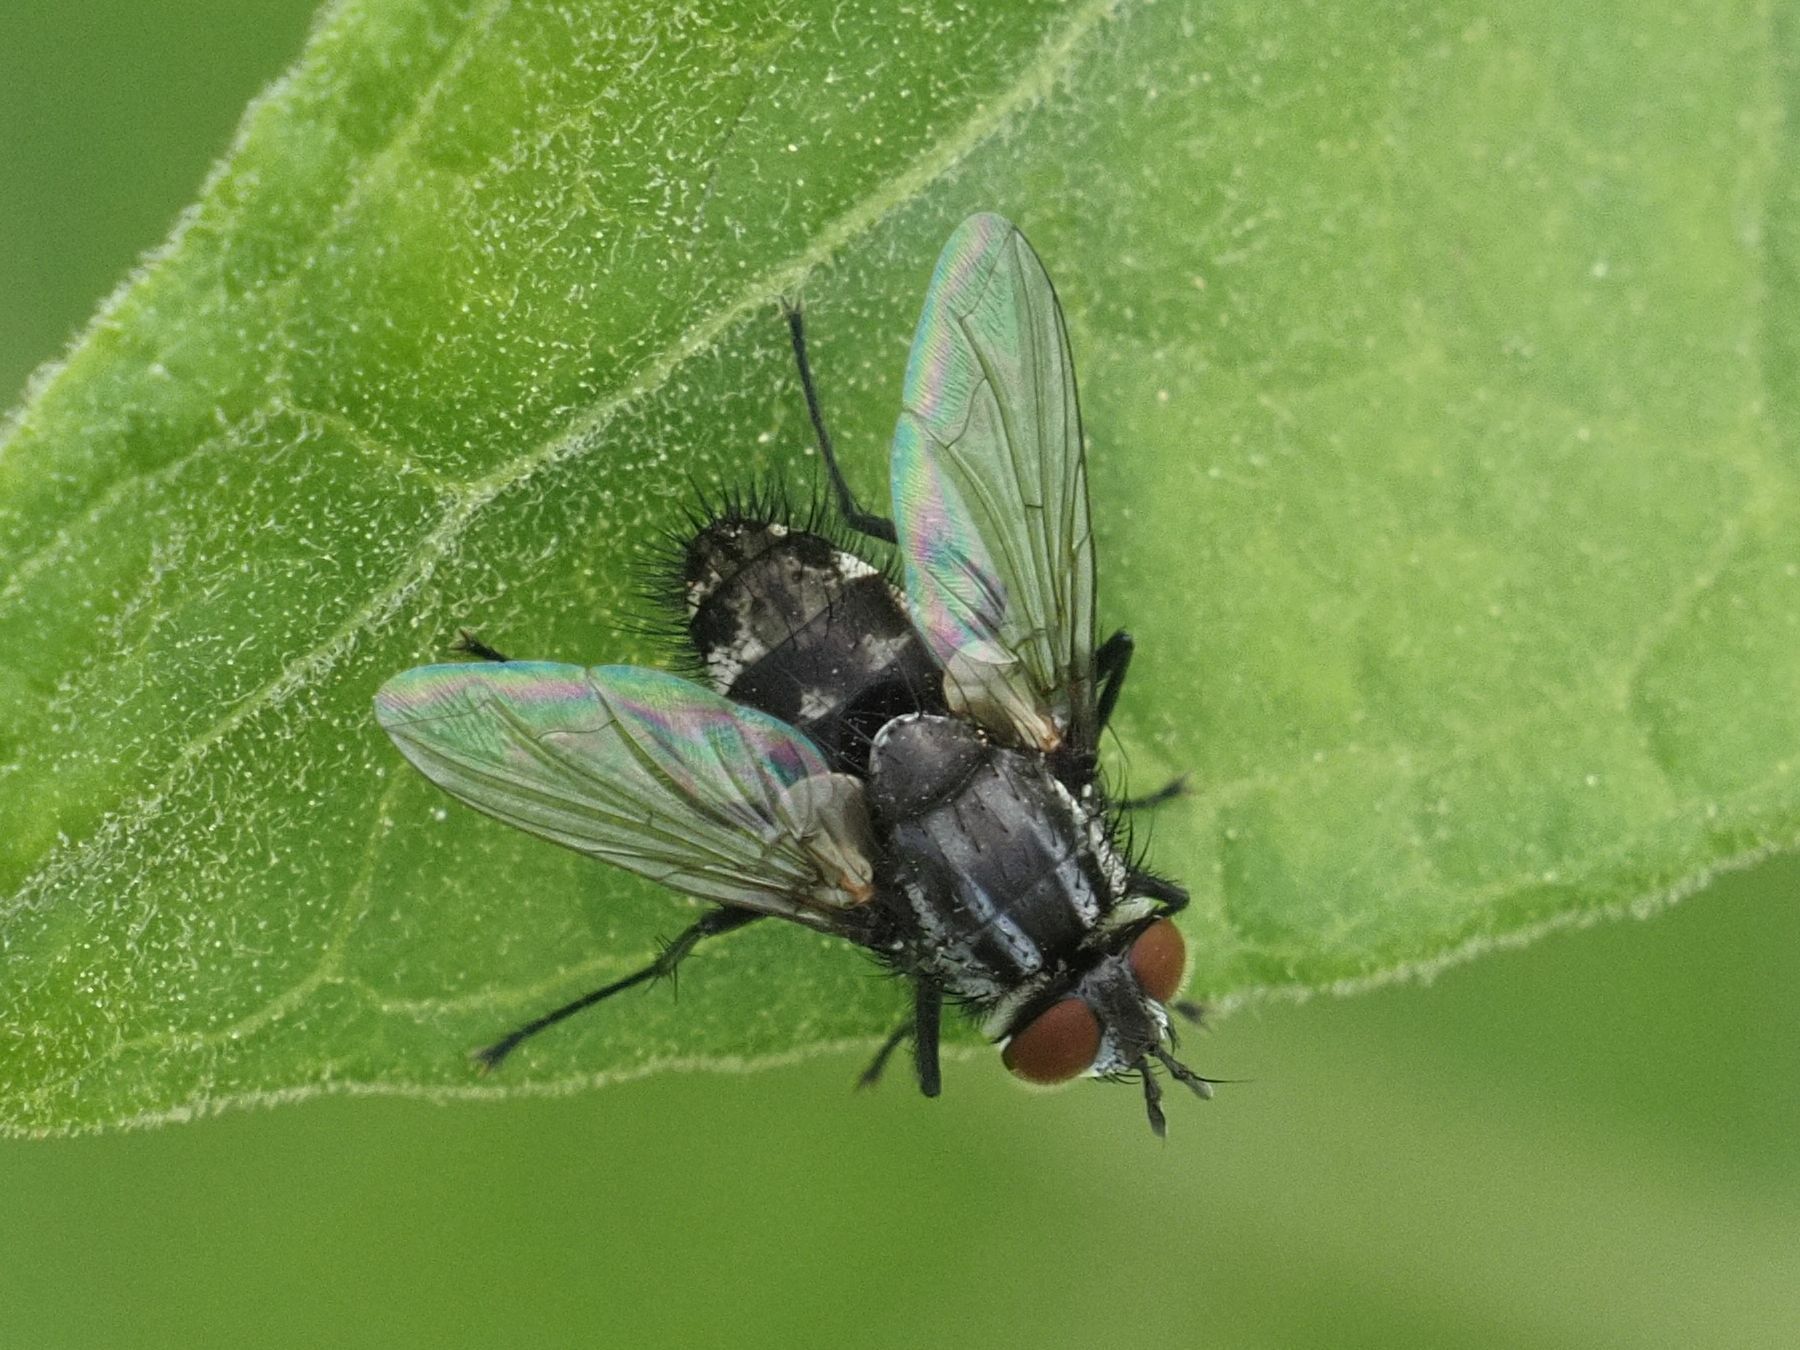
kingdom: Animalia
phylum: Arthropoda
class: Insecta
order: Diptera
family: Tachinidae
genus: Nemorilla
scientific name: Nemorilla maculosa
